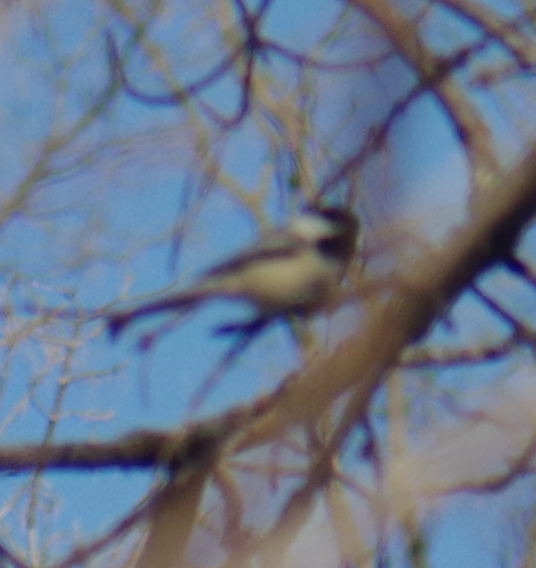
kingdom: Animalia
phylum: Chordata
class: Aves
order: Passeriformes
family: Paridae
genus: Poecile
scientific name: Poecile atricapillus
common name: Black-capped chickadee
